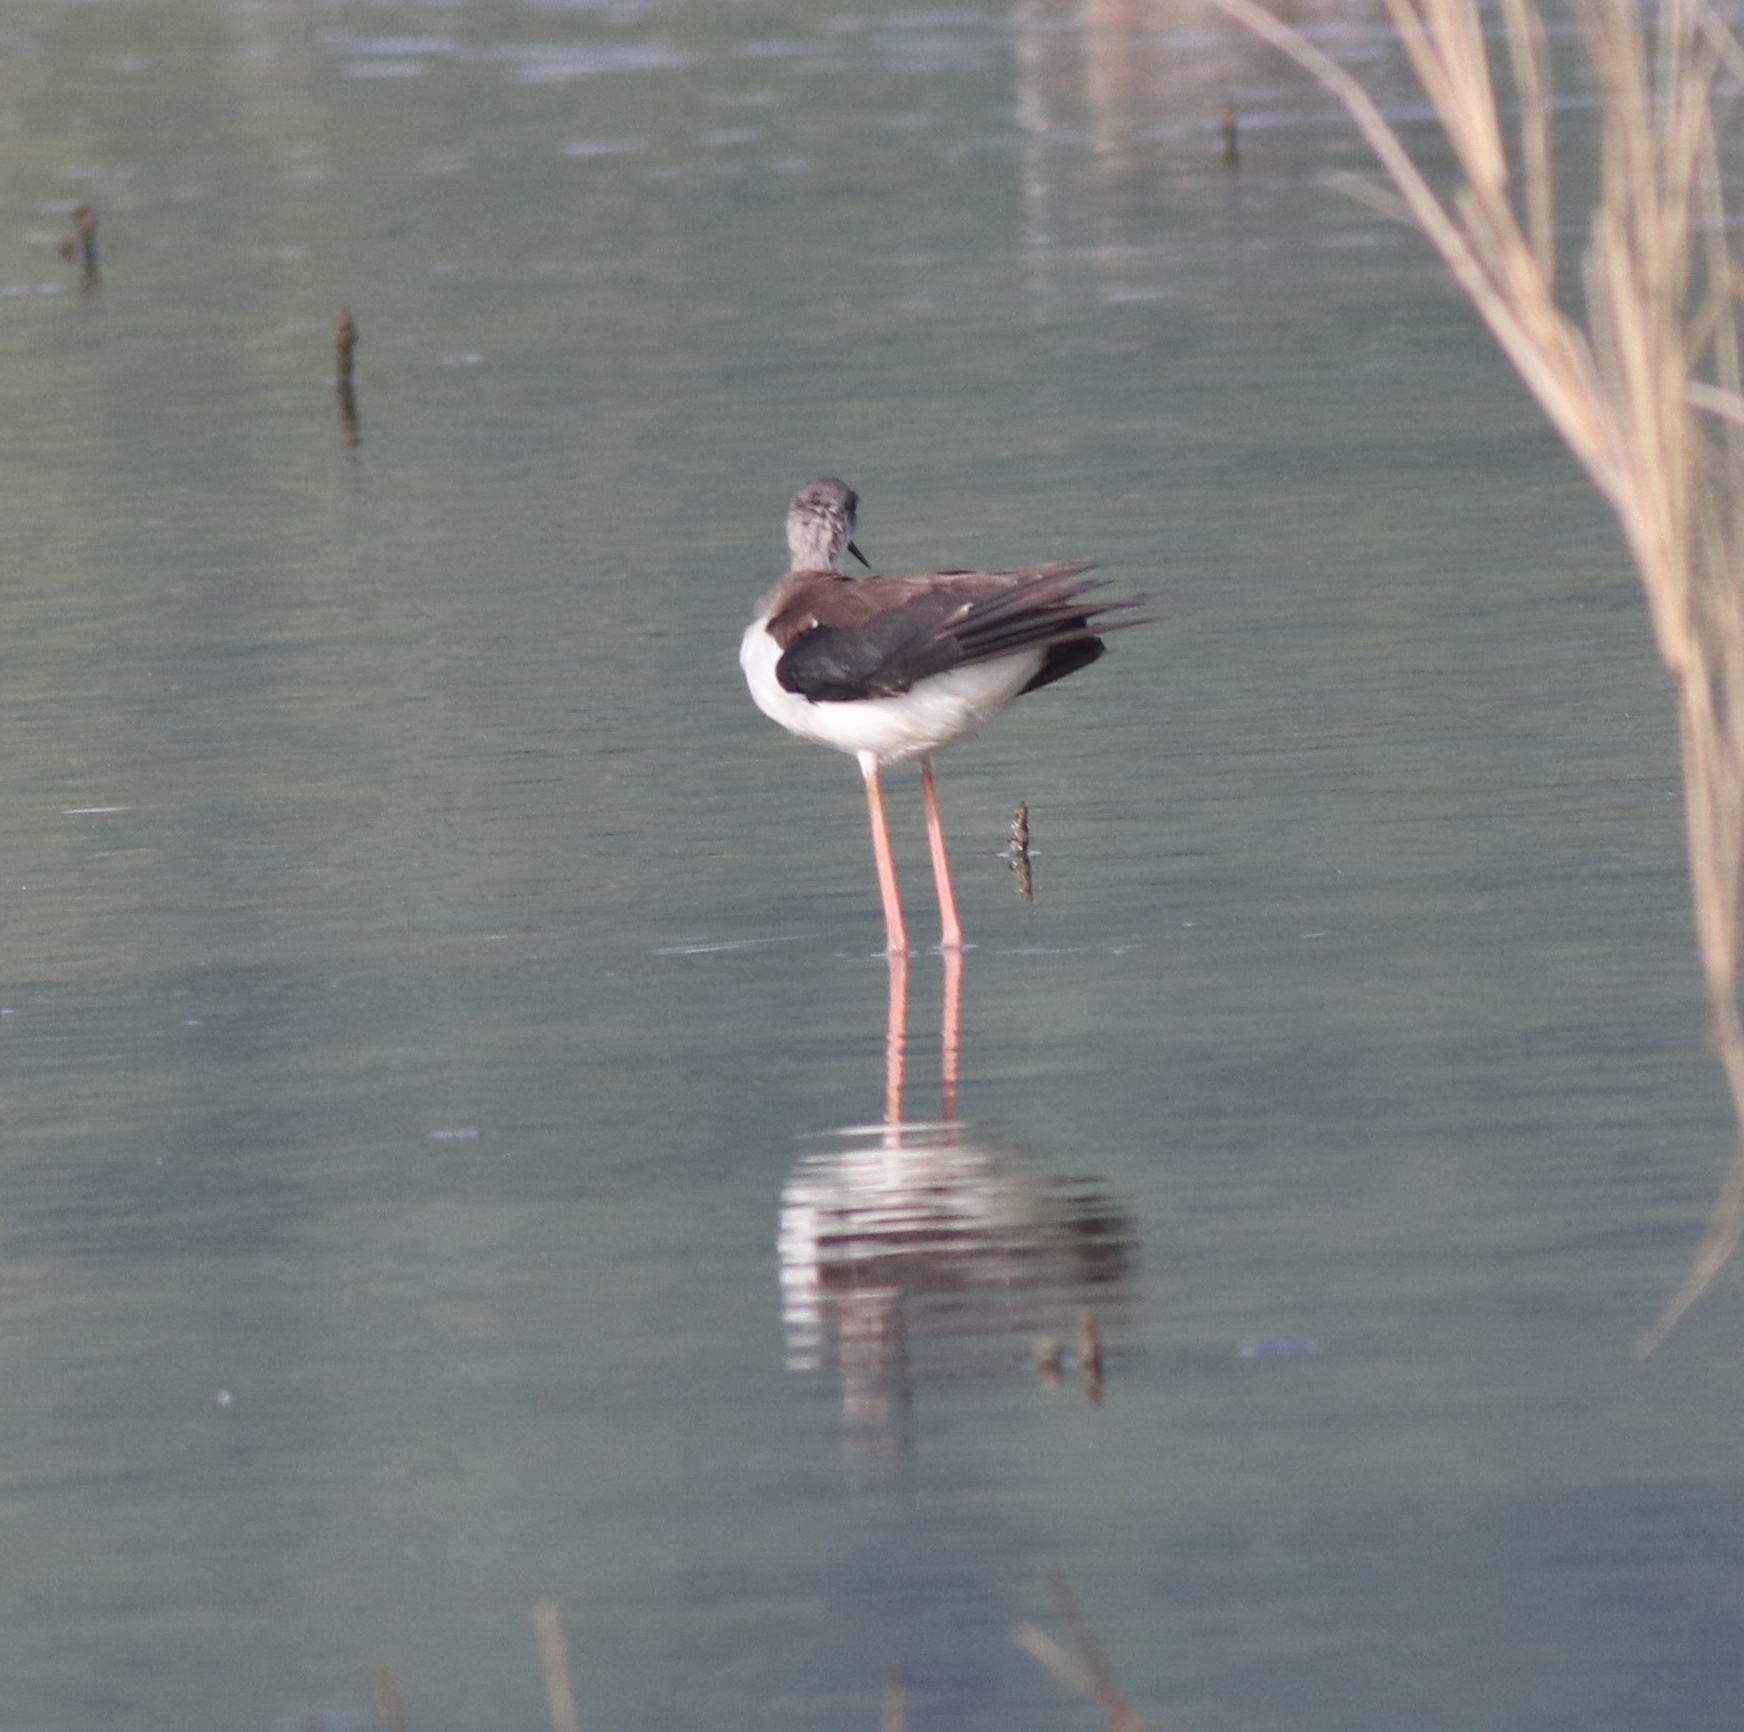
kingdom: Animalia
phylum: Chordata
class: Aves
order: Charadriiformes
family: Recurvirostridae
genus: Himantopus
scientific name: Himantopus himantopus
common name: Black-winged stilt
